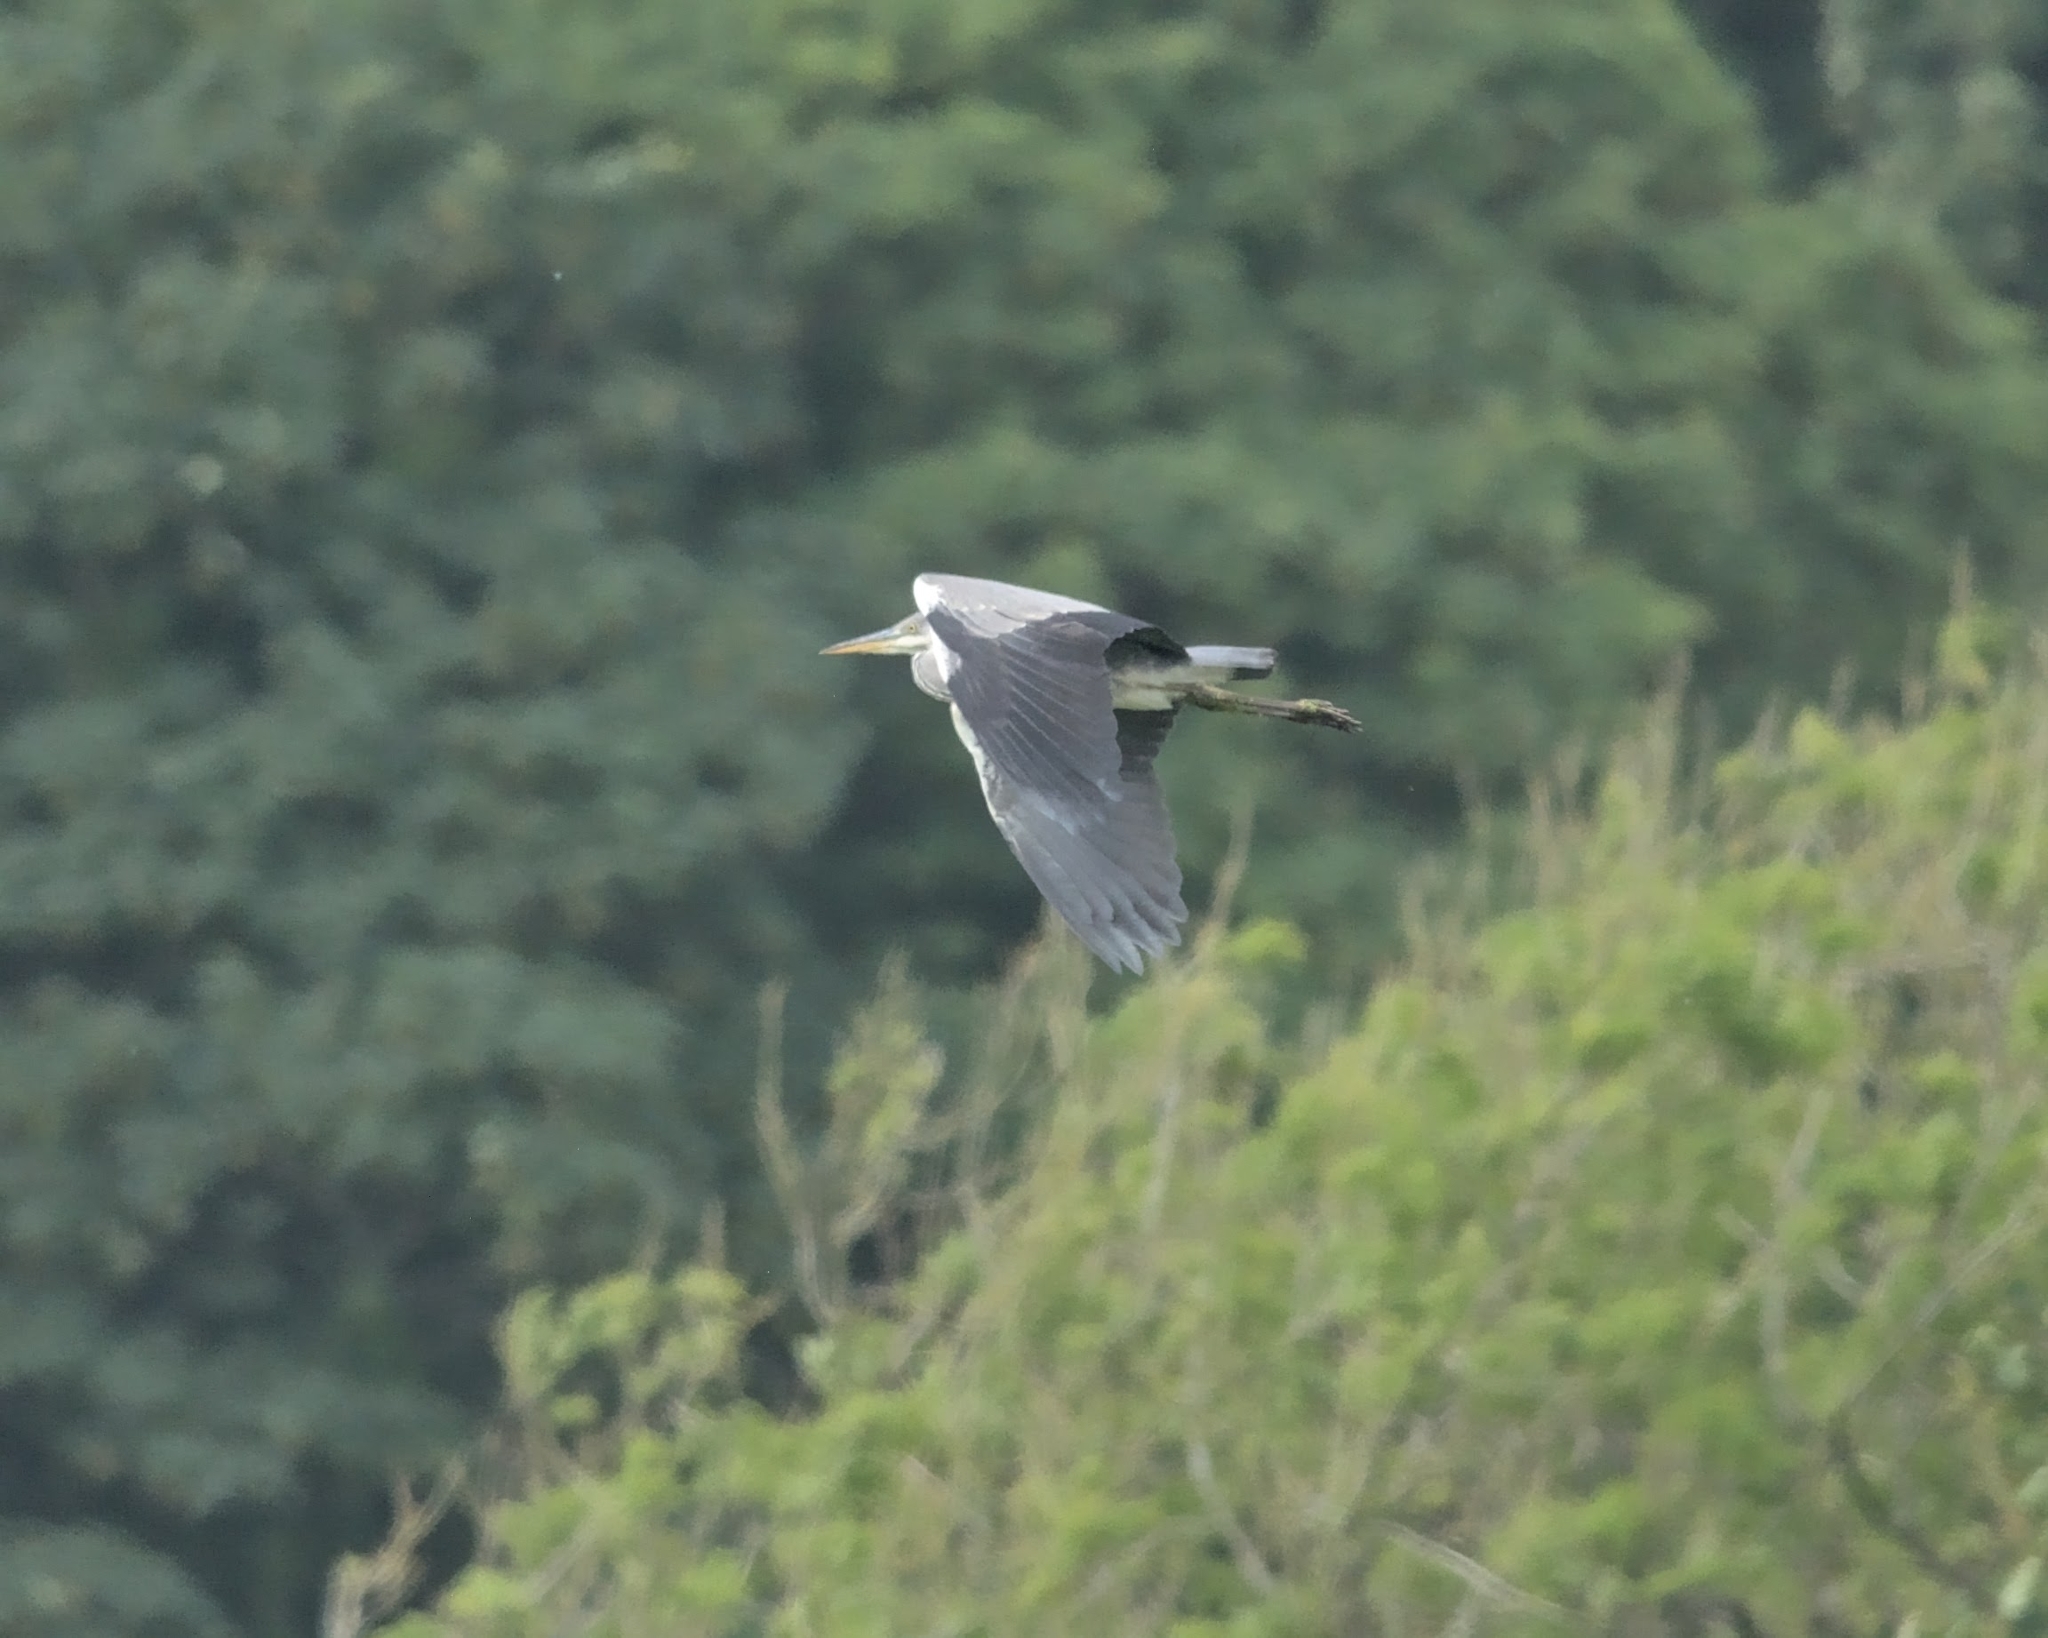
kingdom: Animalia
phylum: Chordata
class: Aves
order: Pelecaniformes
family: Ardeidae
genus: Ardea
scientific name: Ardea cinerea
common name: Grey heron
